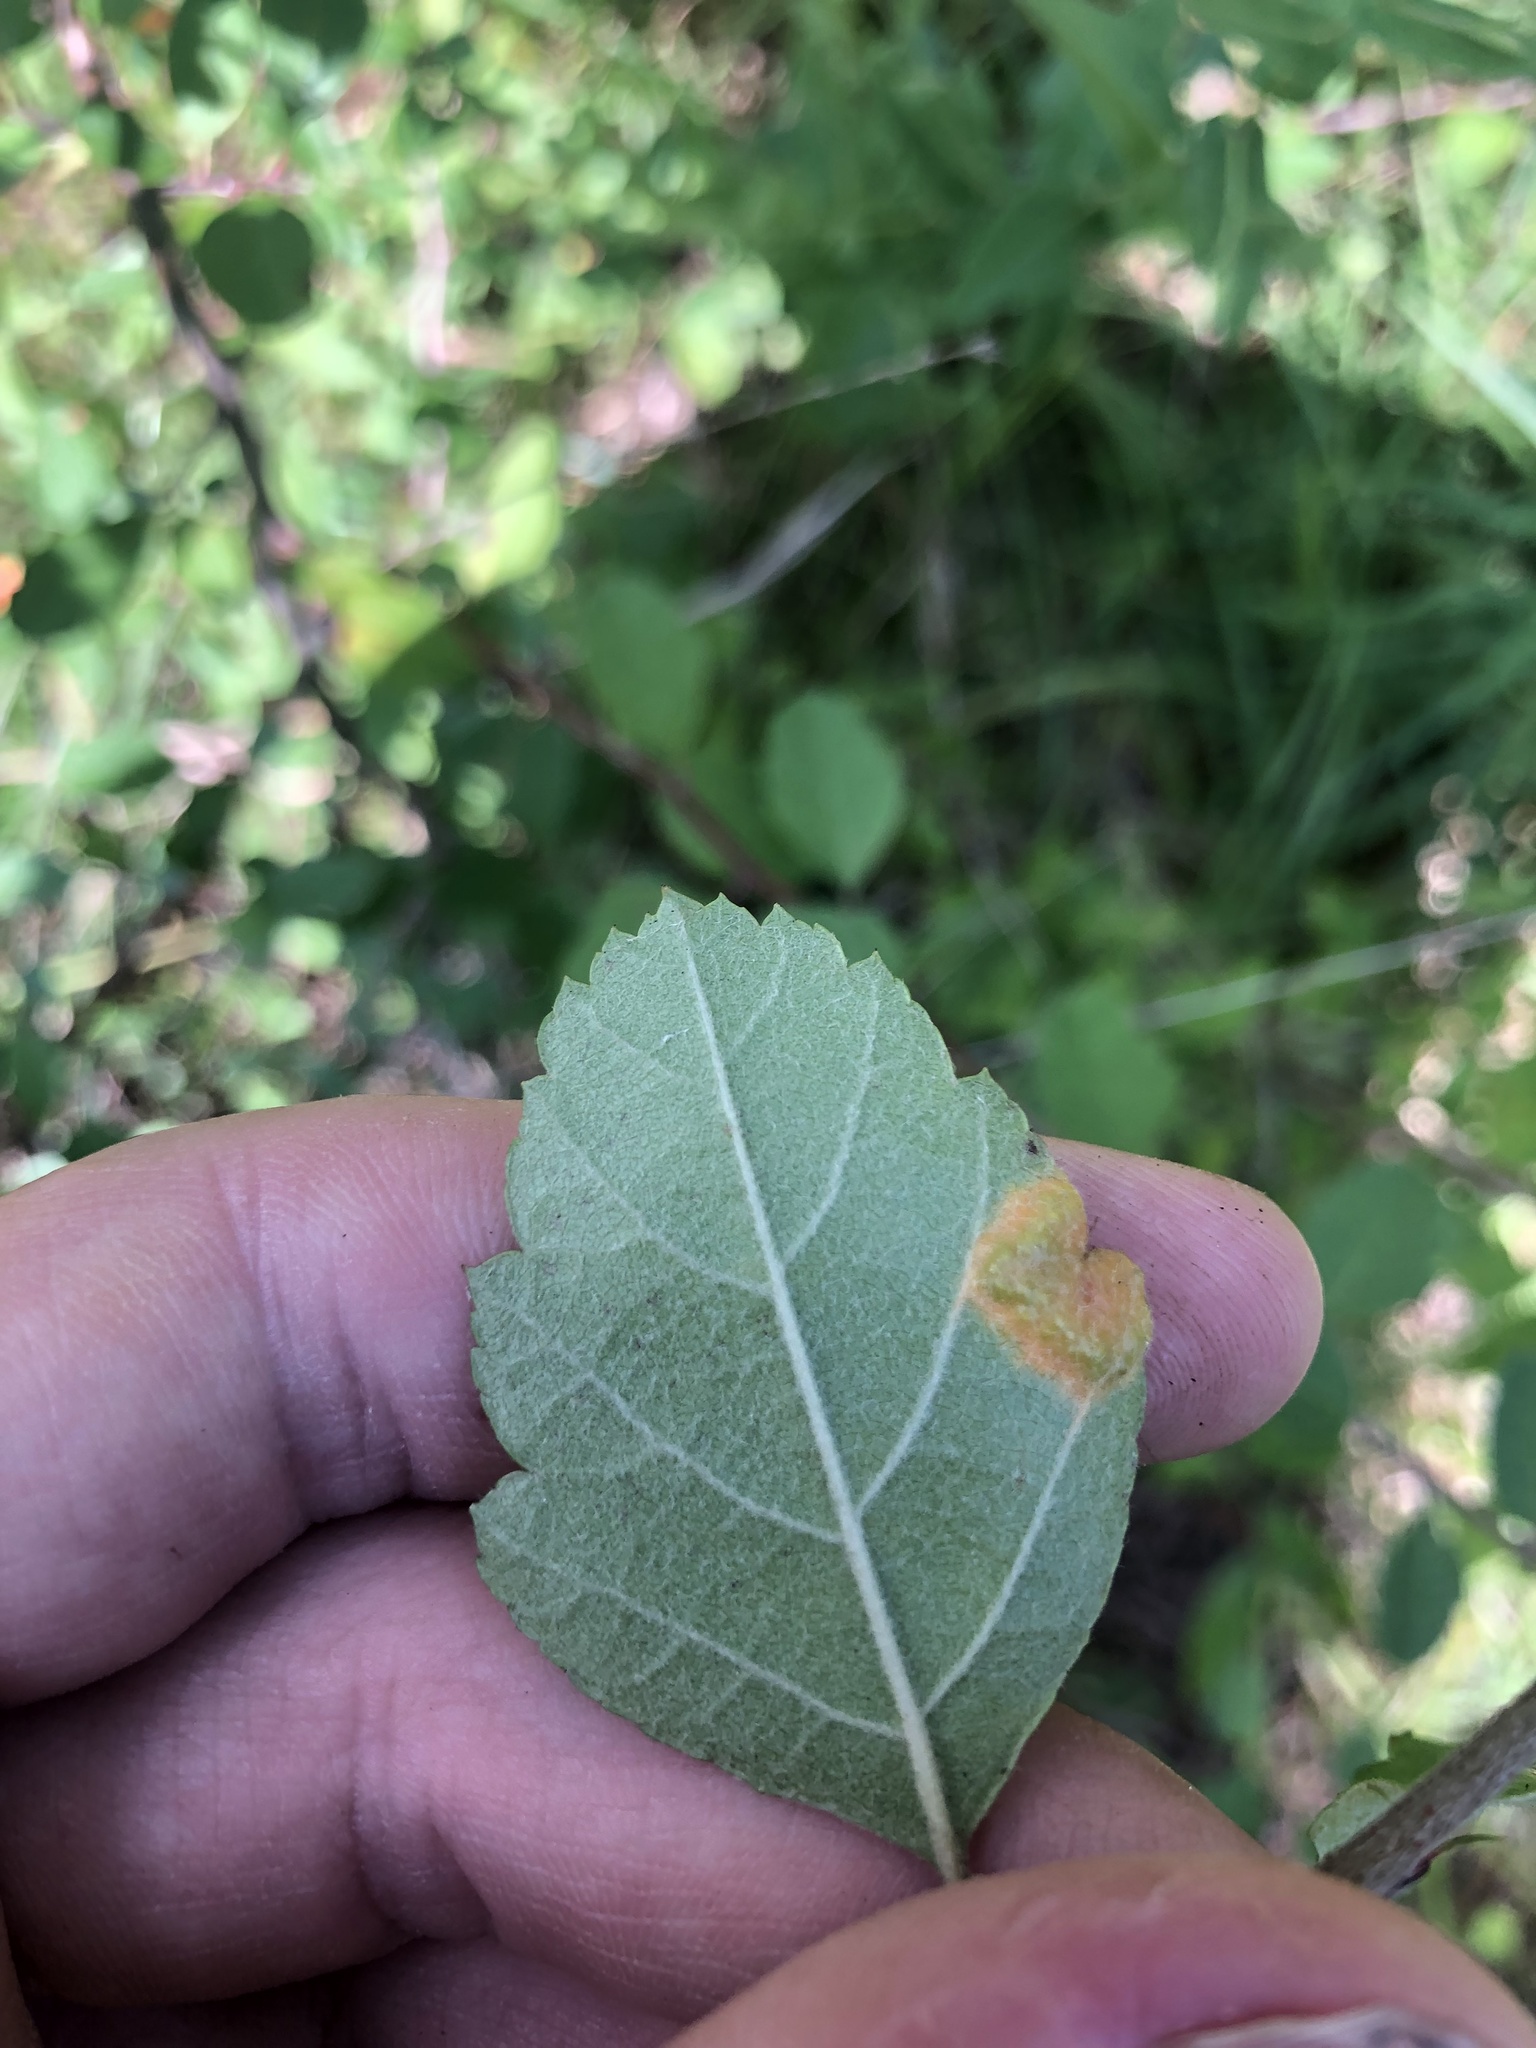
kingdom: Plantae
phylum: Tracheophyta
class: Magnoliopsida
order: Rosales
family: Rosaceae
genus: Malus
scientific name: Malus angustifolia
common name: Southern crab apple
